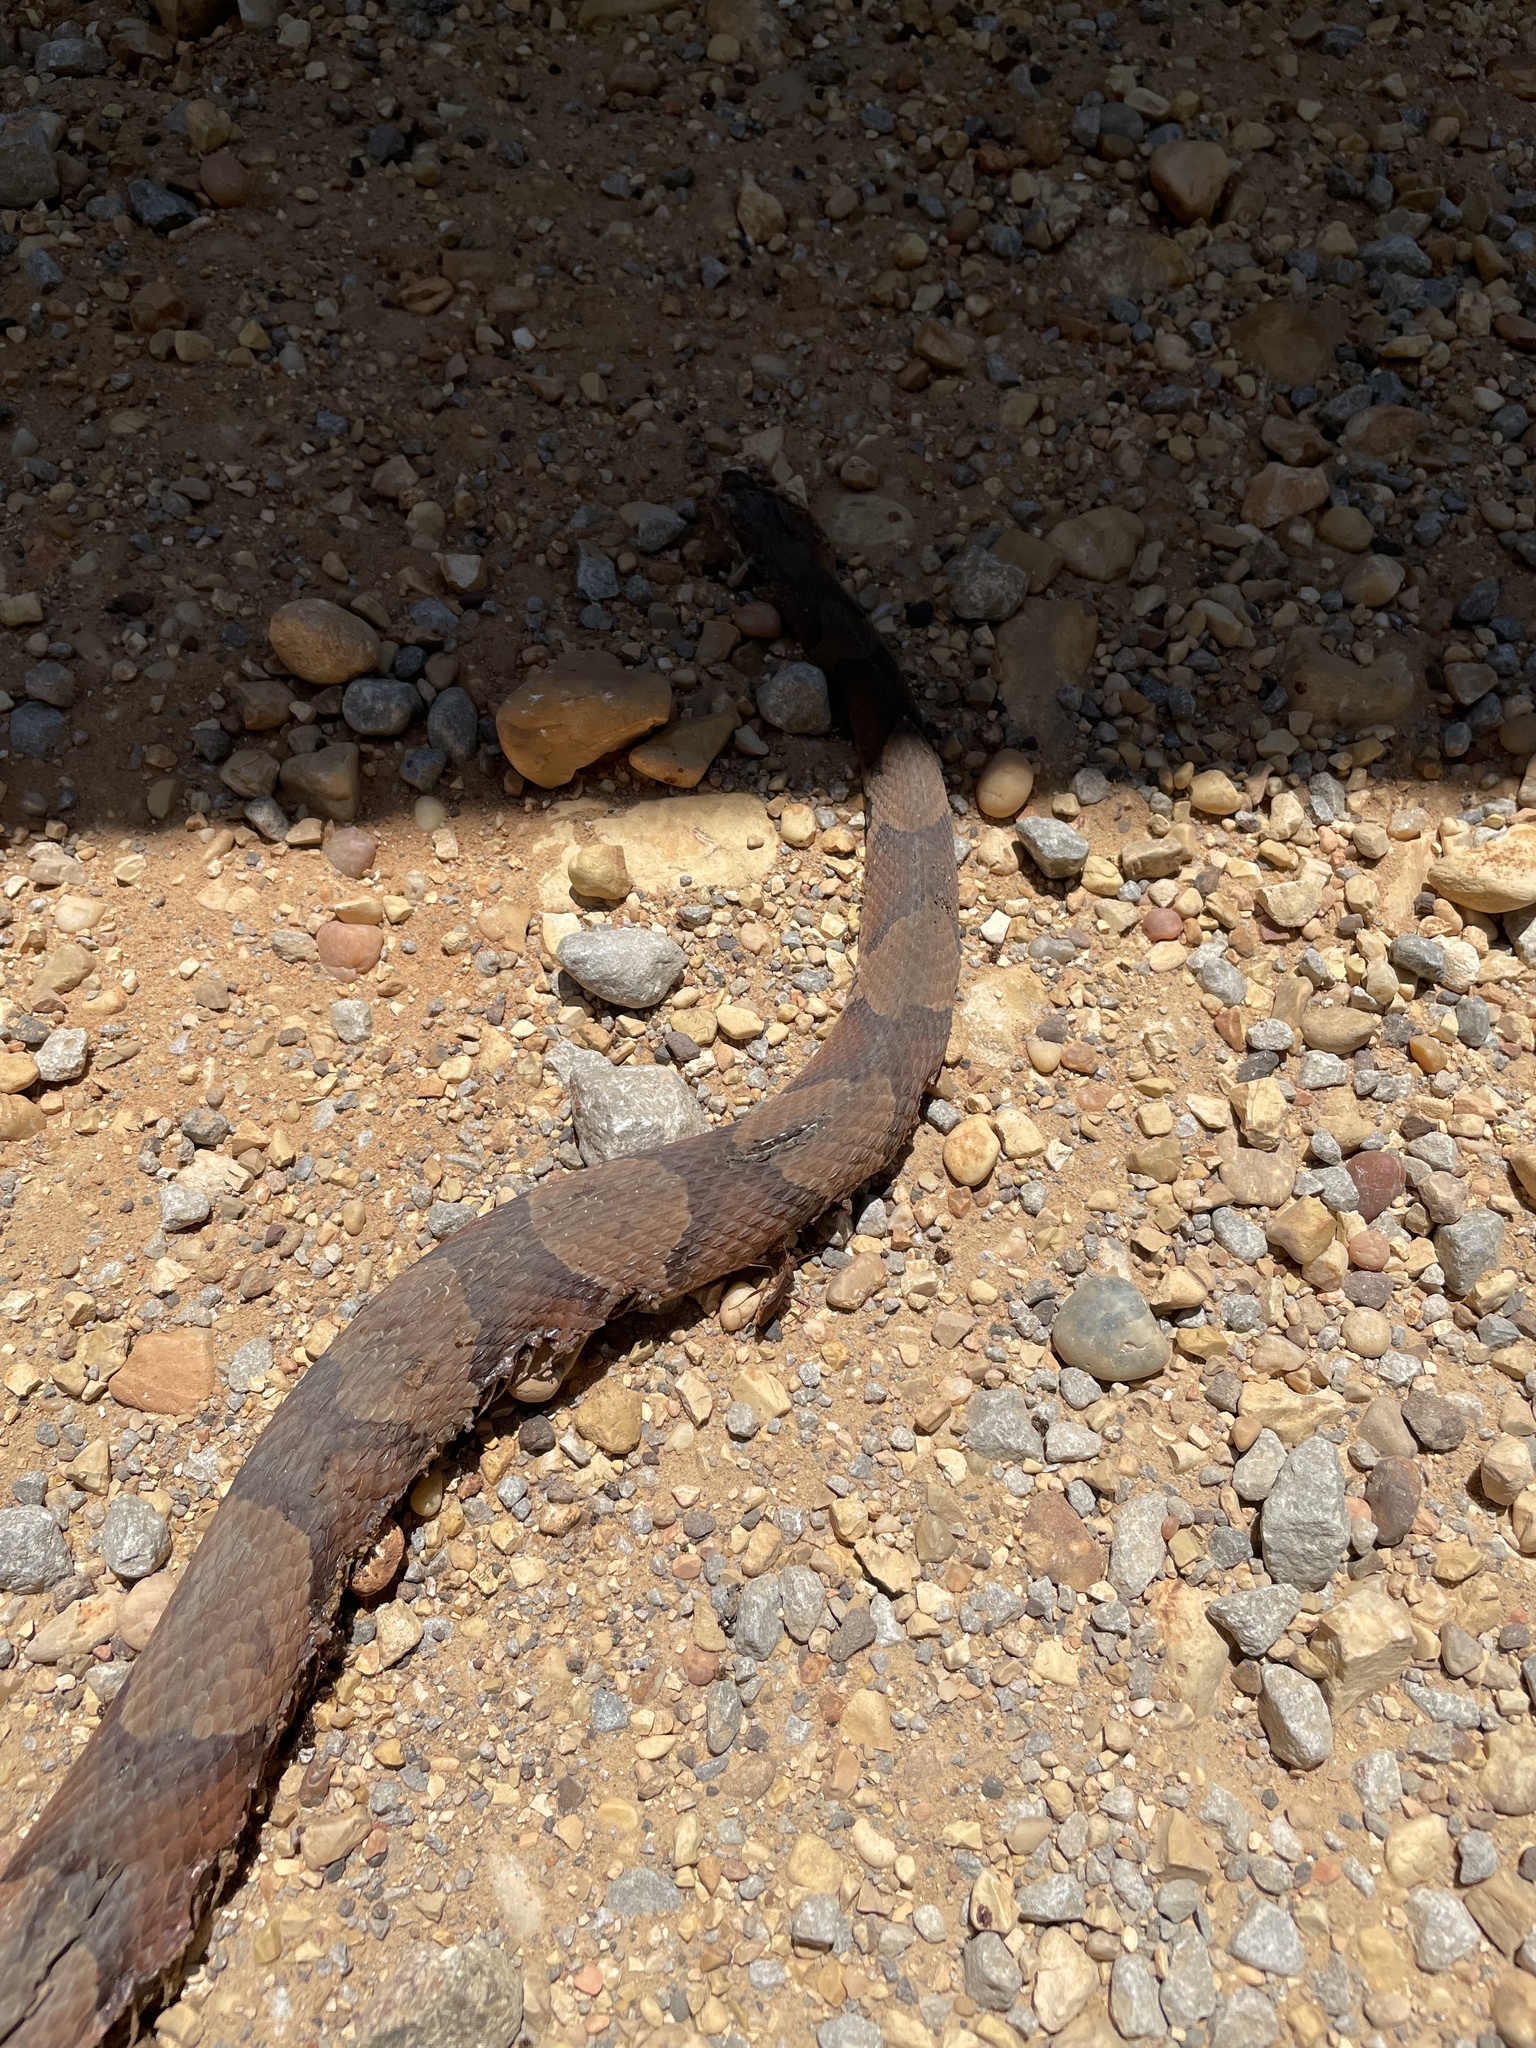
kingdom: Animalia
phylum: Chordata
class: Squamata
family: Viperidae
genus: Agkistrodon
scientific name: Agkistrodon contortrix
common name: Northern copperhead
